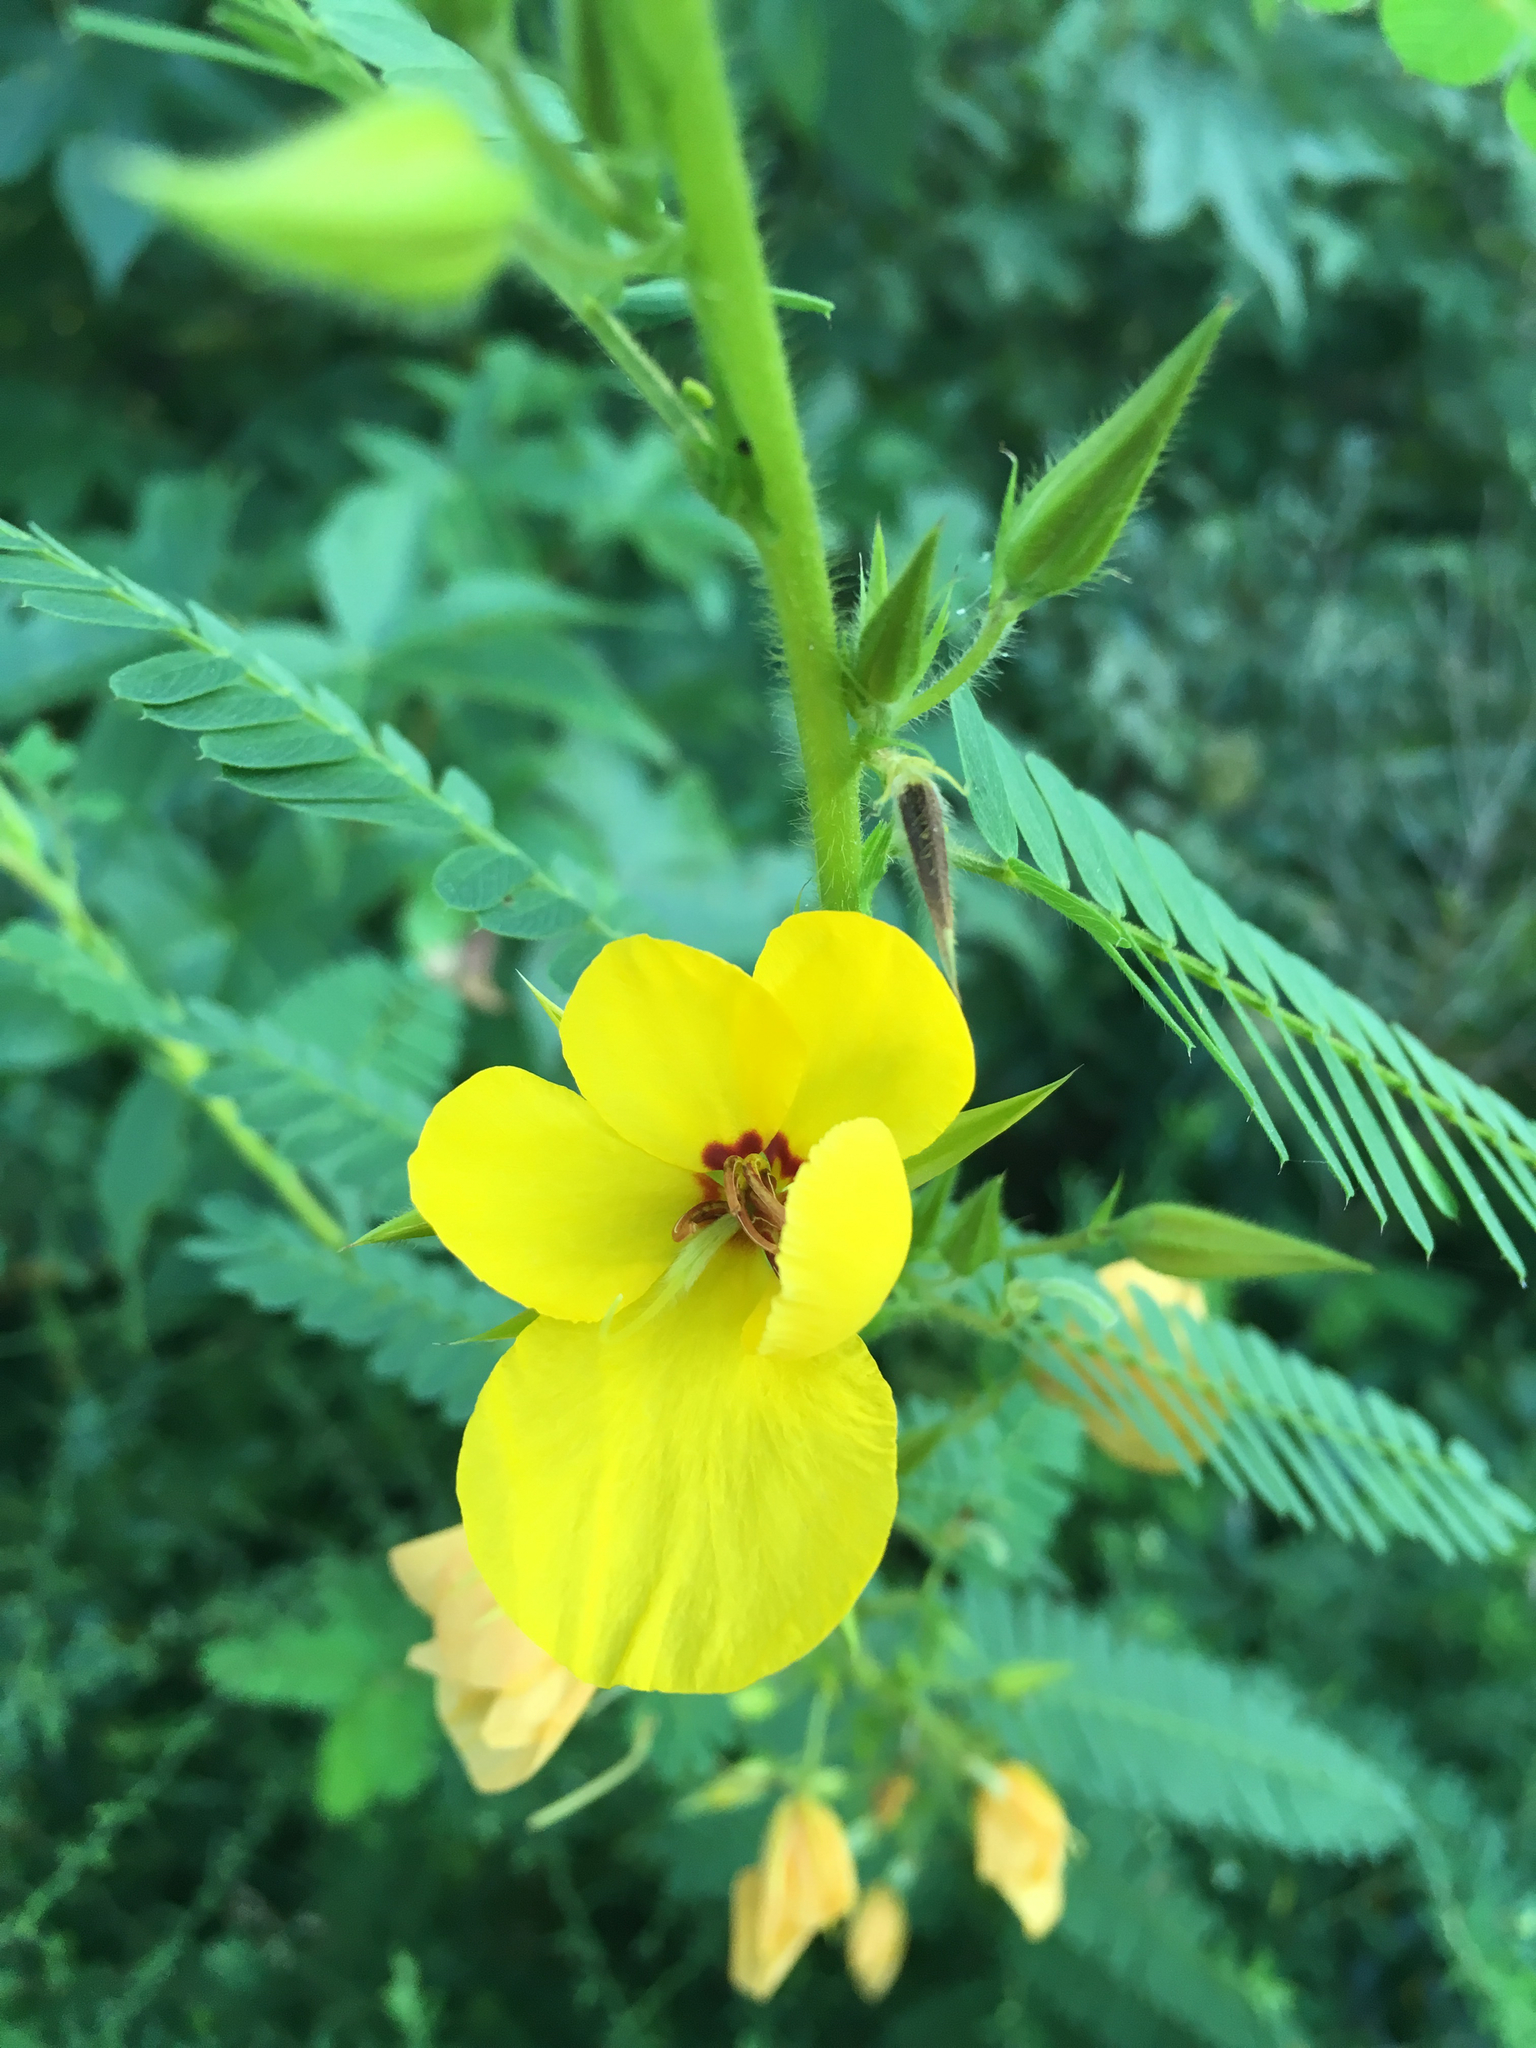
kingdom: Plantae
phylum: Tracheophyta
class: Magnoliopsida
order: Fabales
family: Fabaceae
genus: Chamaecrista
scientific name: Chamaecrista fasciculata
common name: Golden cassia
